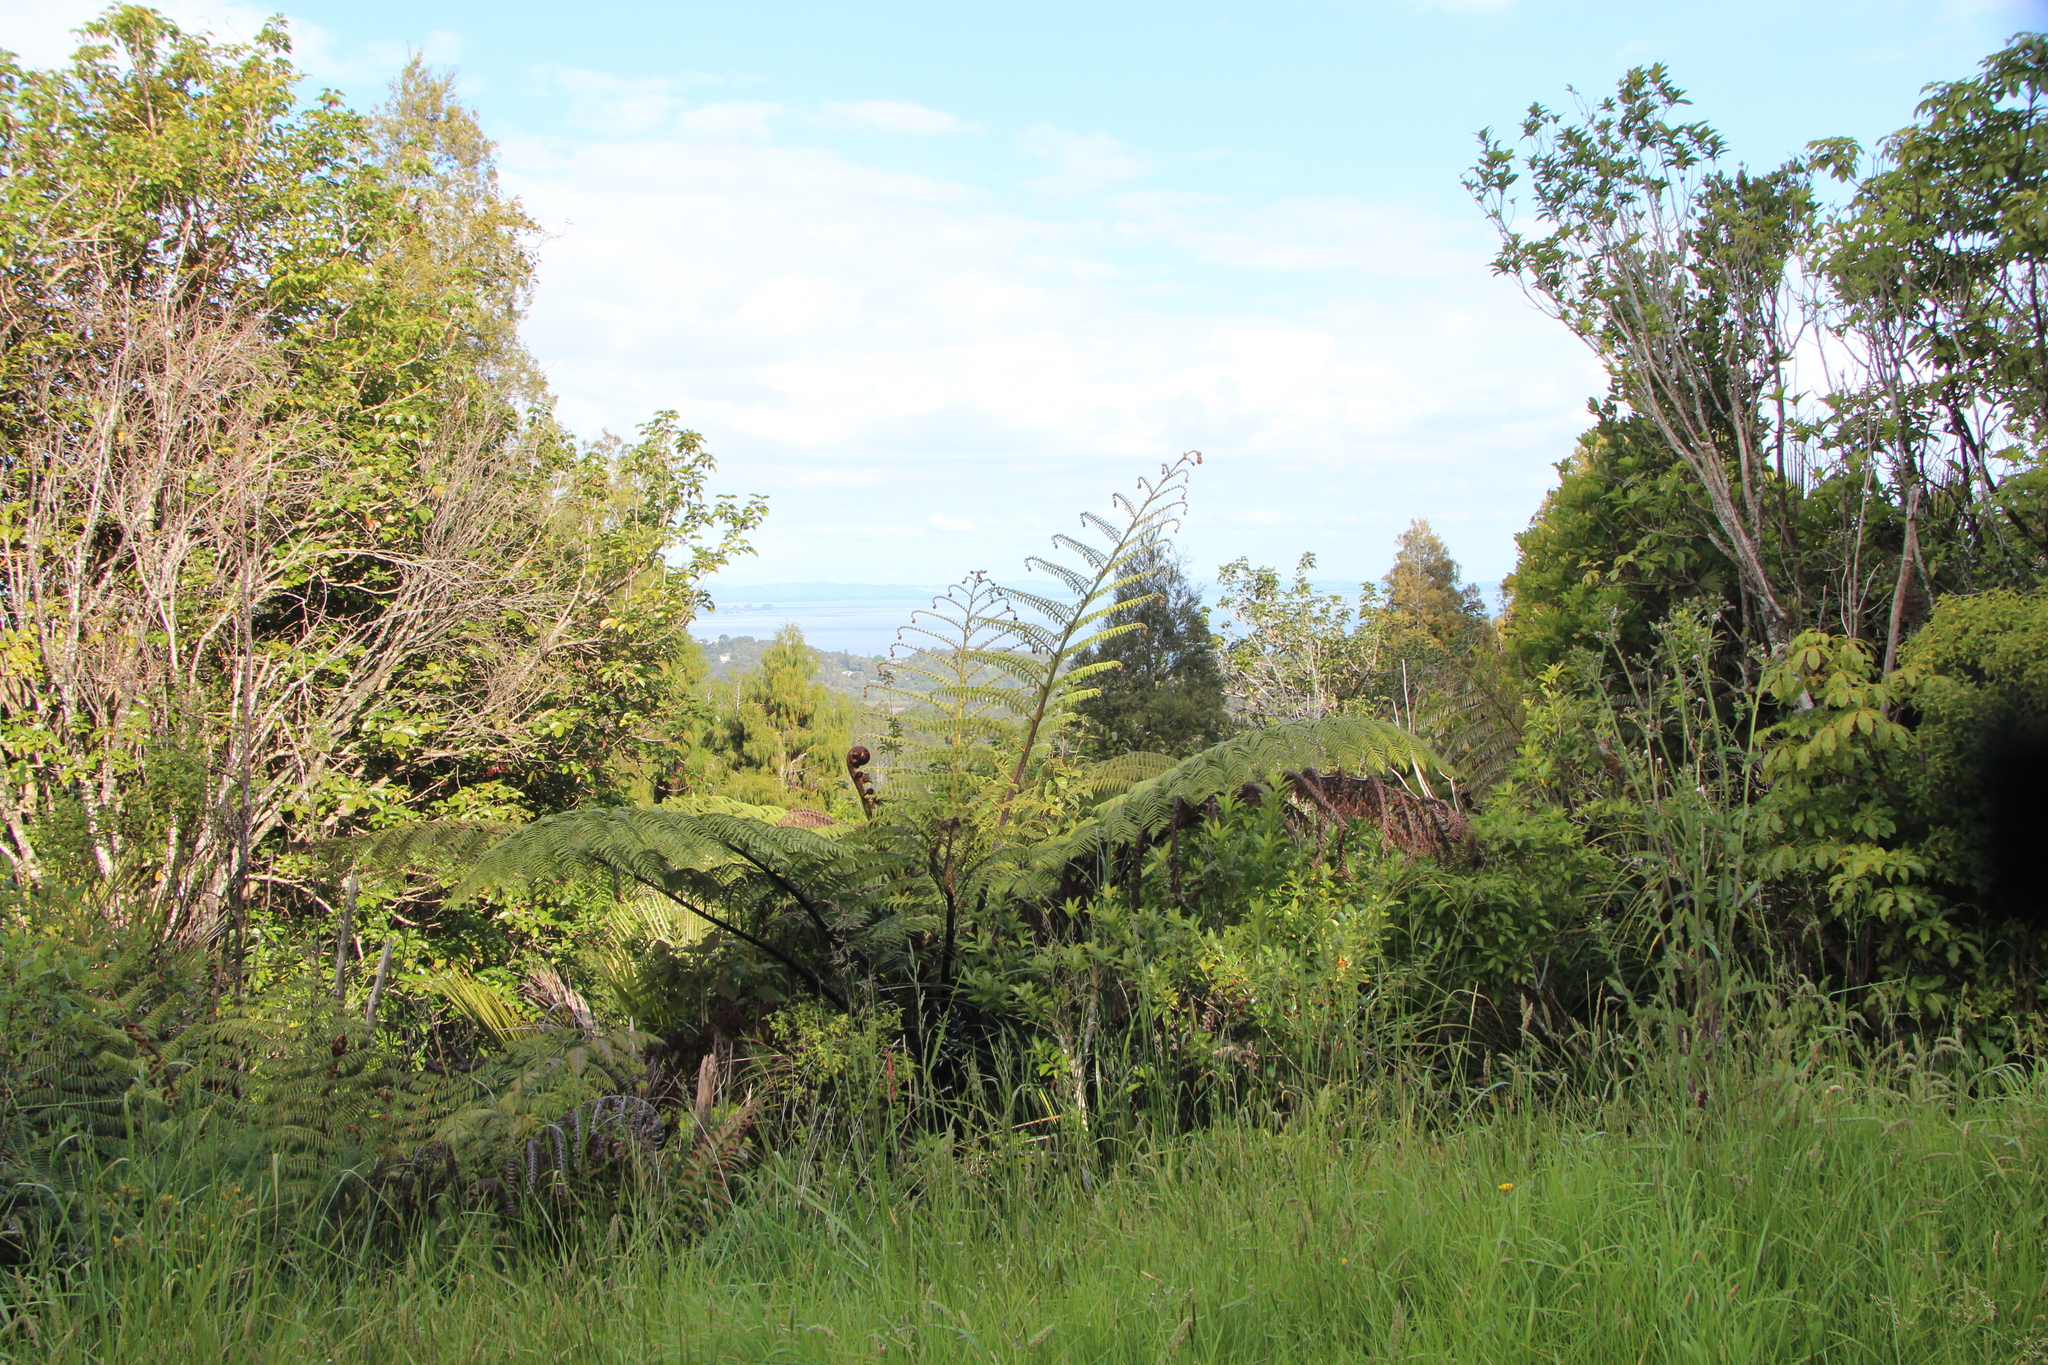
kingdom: Plantae
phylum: Tracheophyta
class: Polypodiopsida
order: Cyatheales
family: Cyatheaceae
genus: Sphaeropteris
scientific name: Sphaeropteris medullaris
